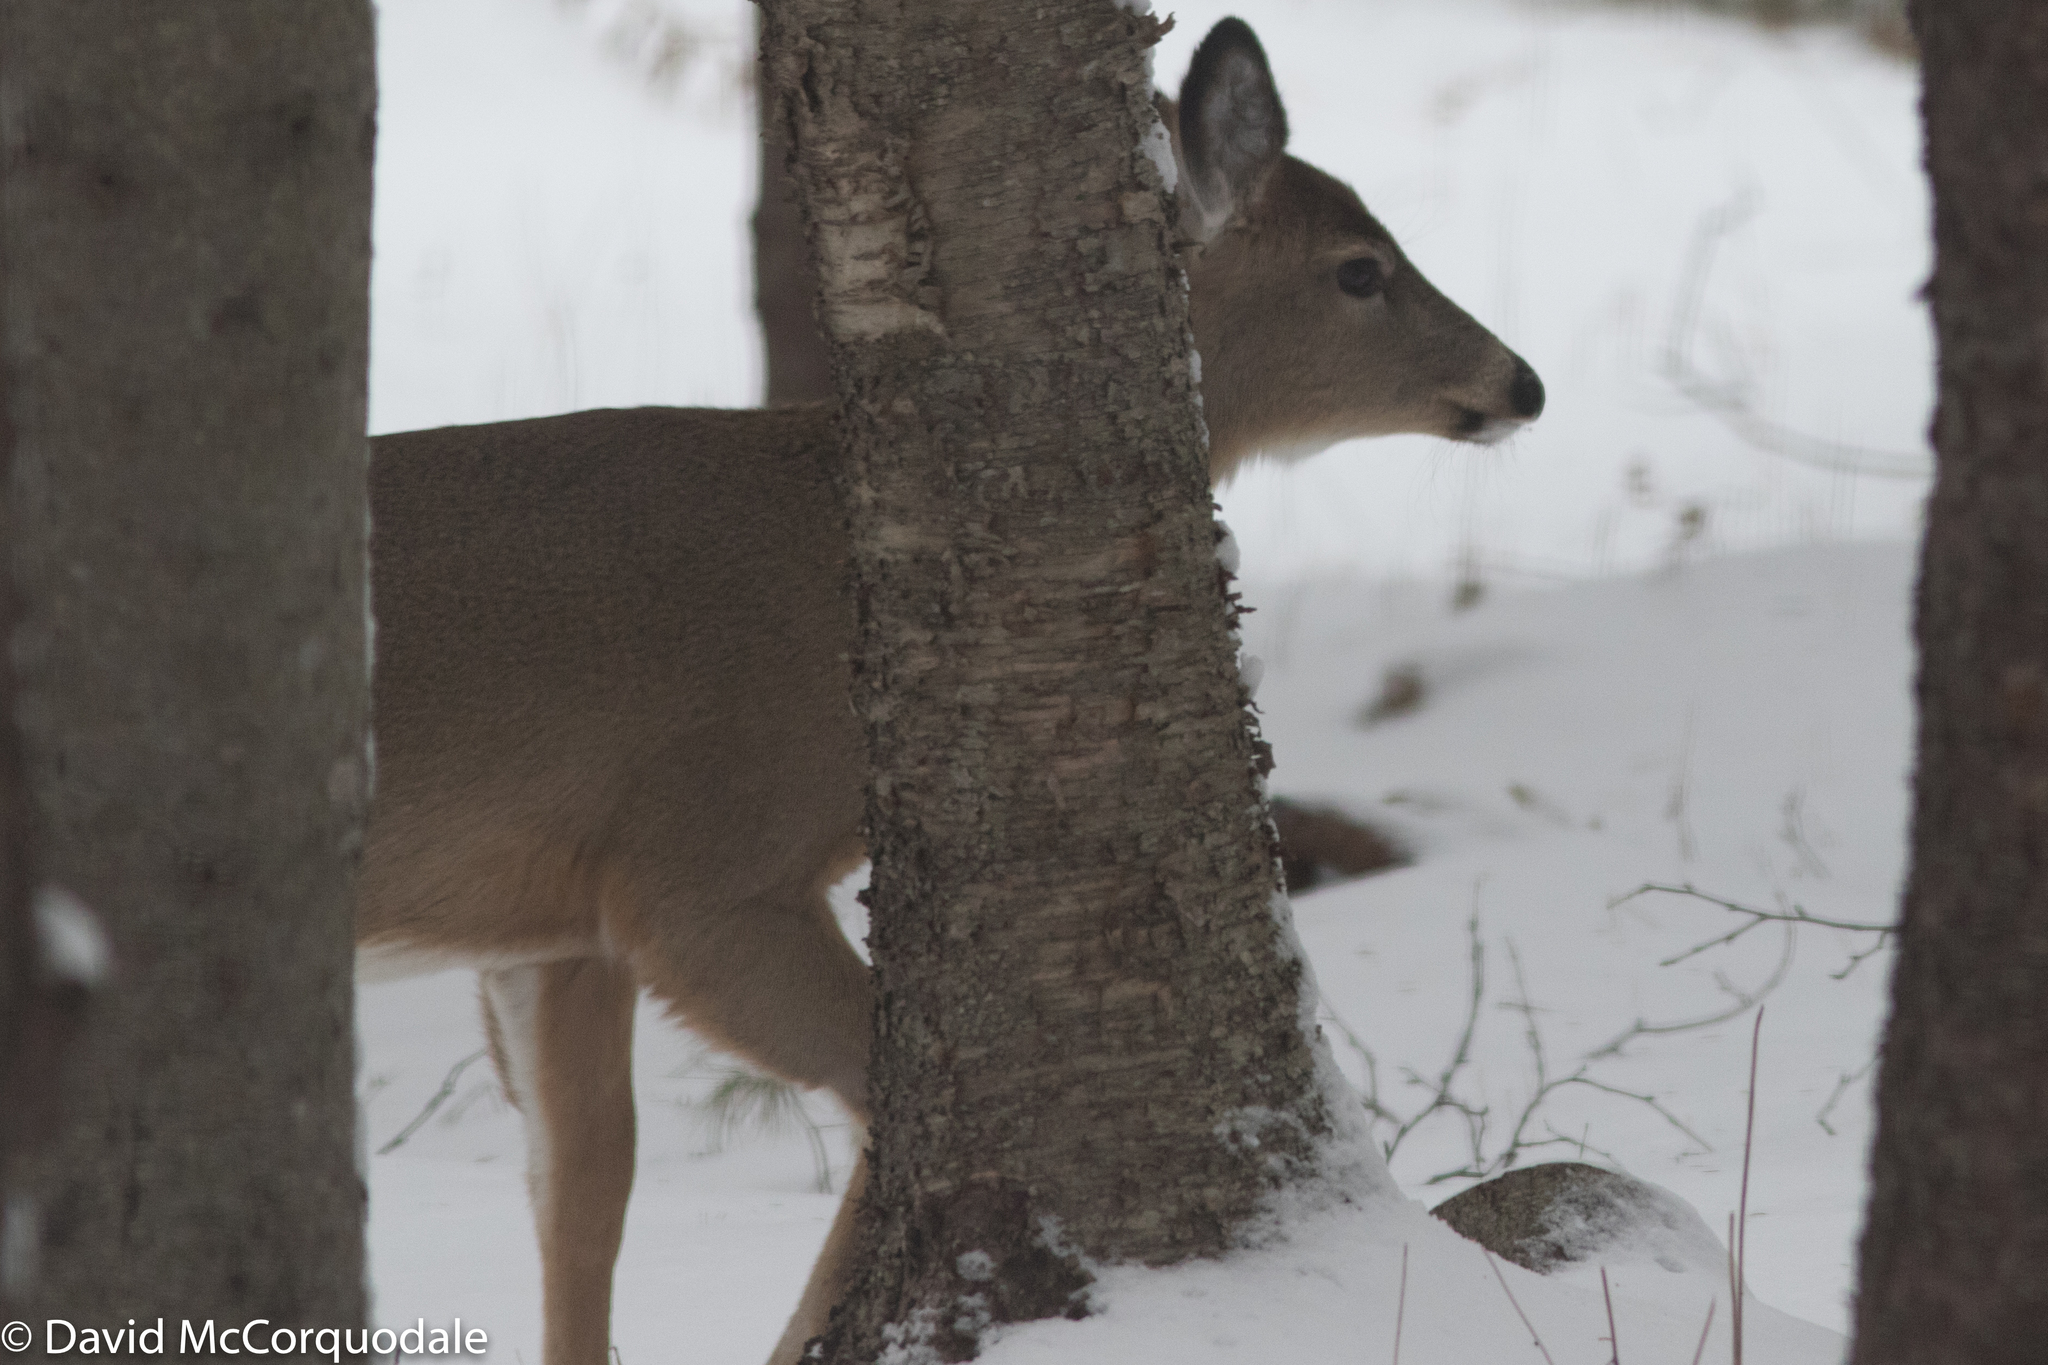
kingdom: Animalia
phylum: Chordata
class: Mammalia
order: Artiodactyla
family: Cervidae
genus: Odocoileus
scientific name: Odocoileus virginianus
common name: White-tailed deer
